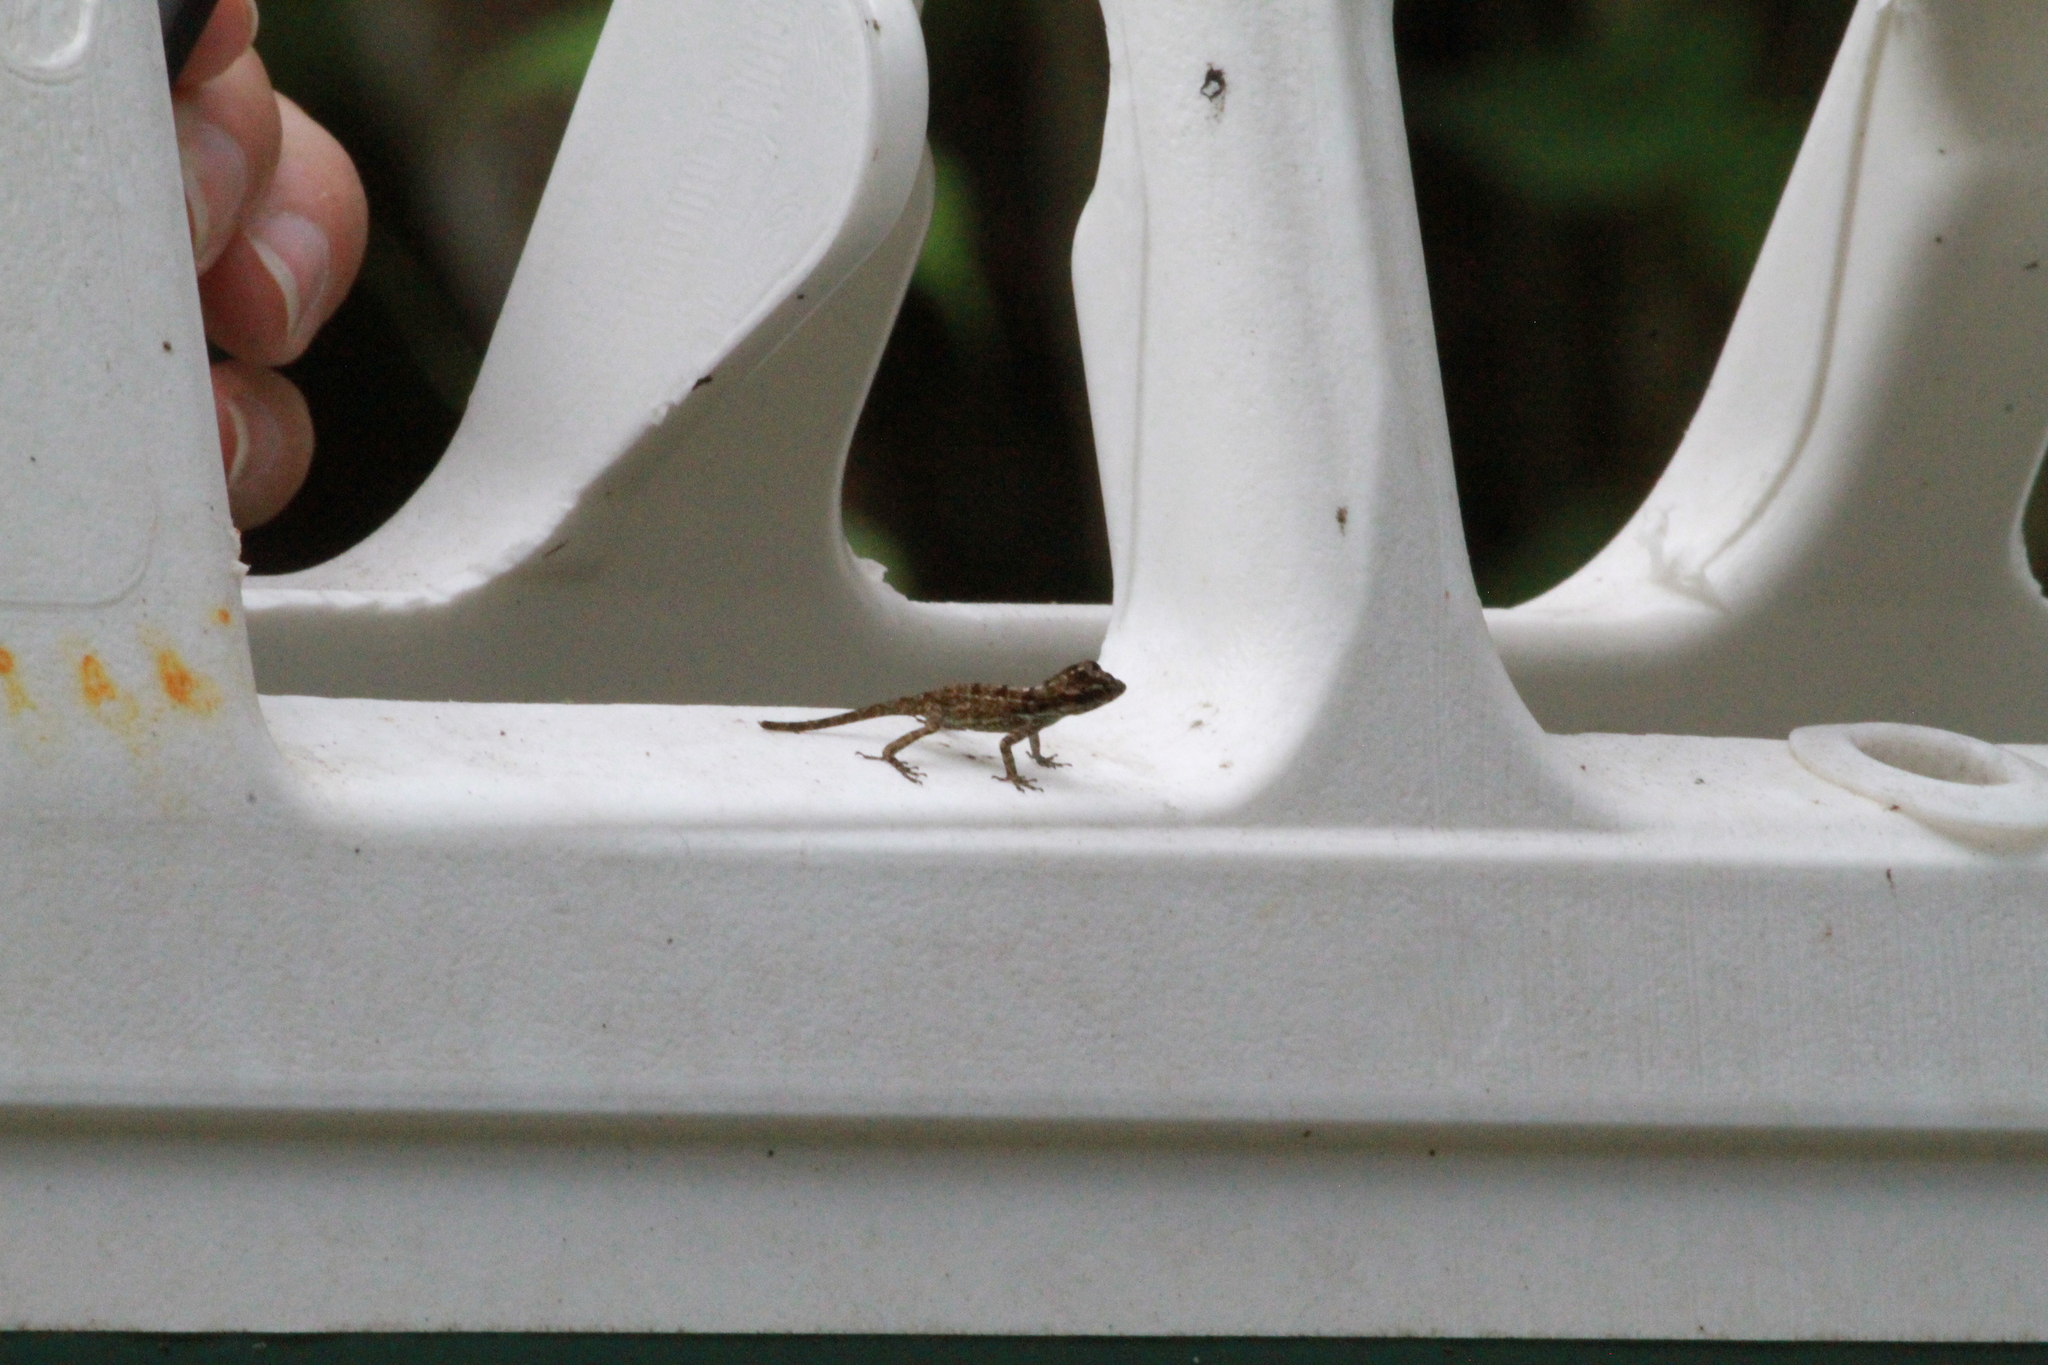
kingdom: Animalia
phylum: Chordata
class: Squamata
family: Dactyloidae
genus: Anolis
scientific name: Anolis cristatellus
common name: Crested anole
